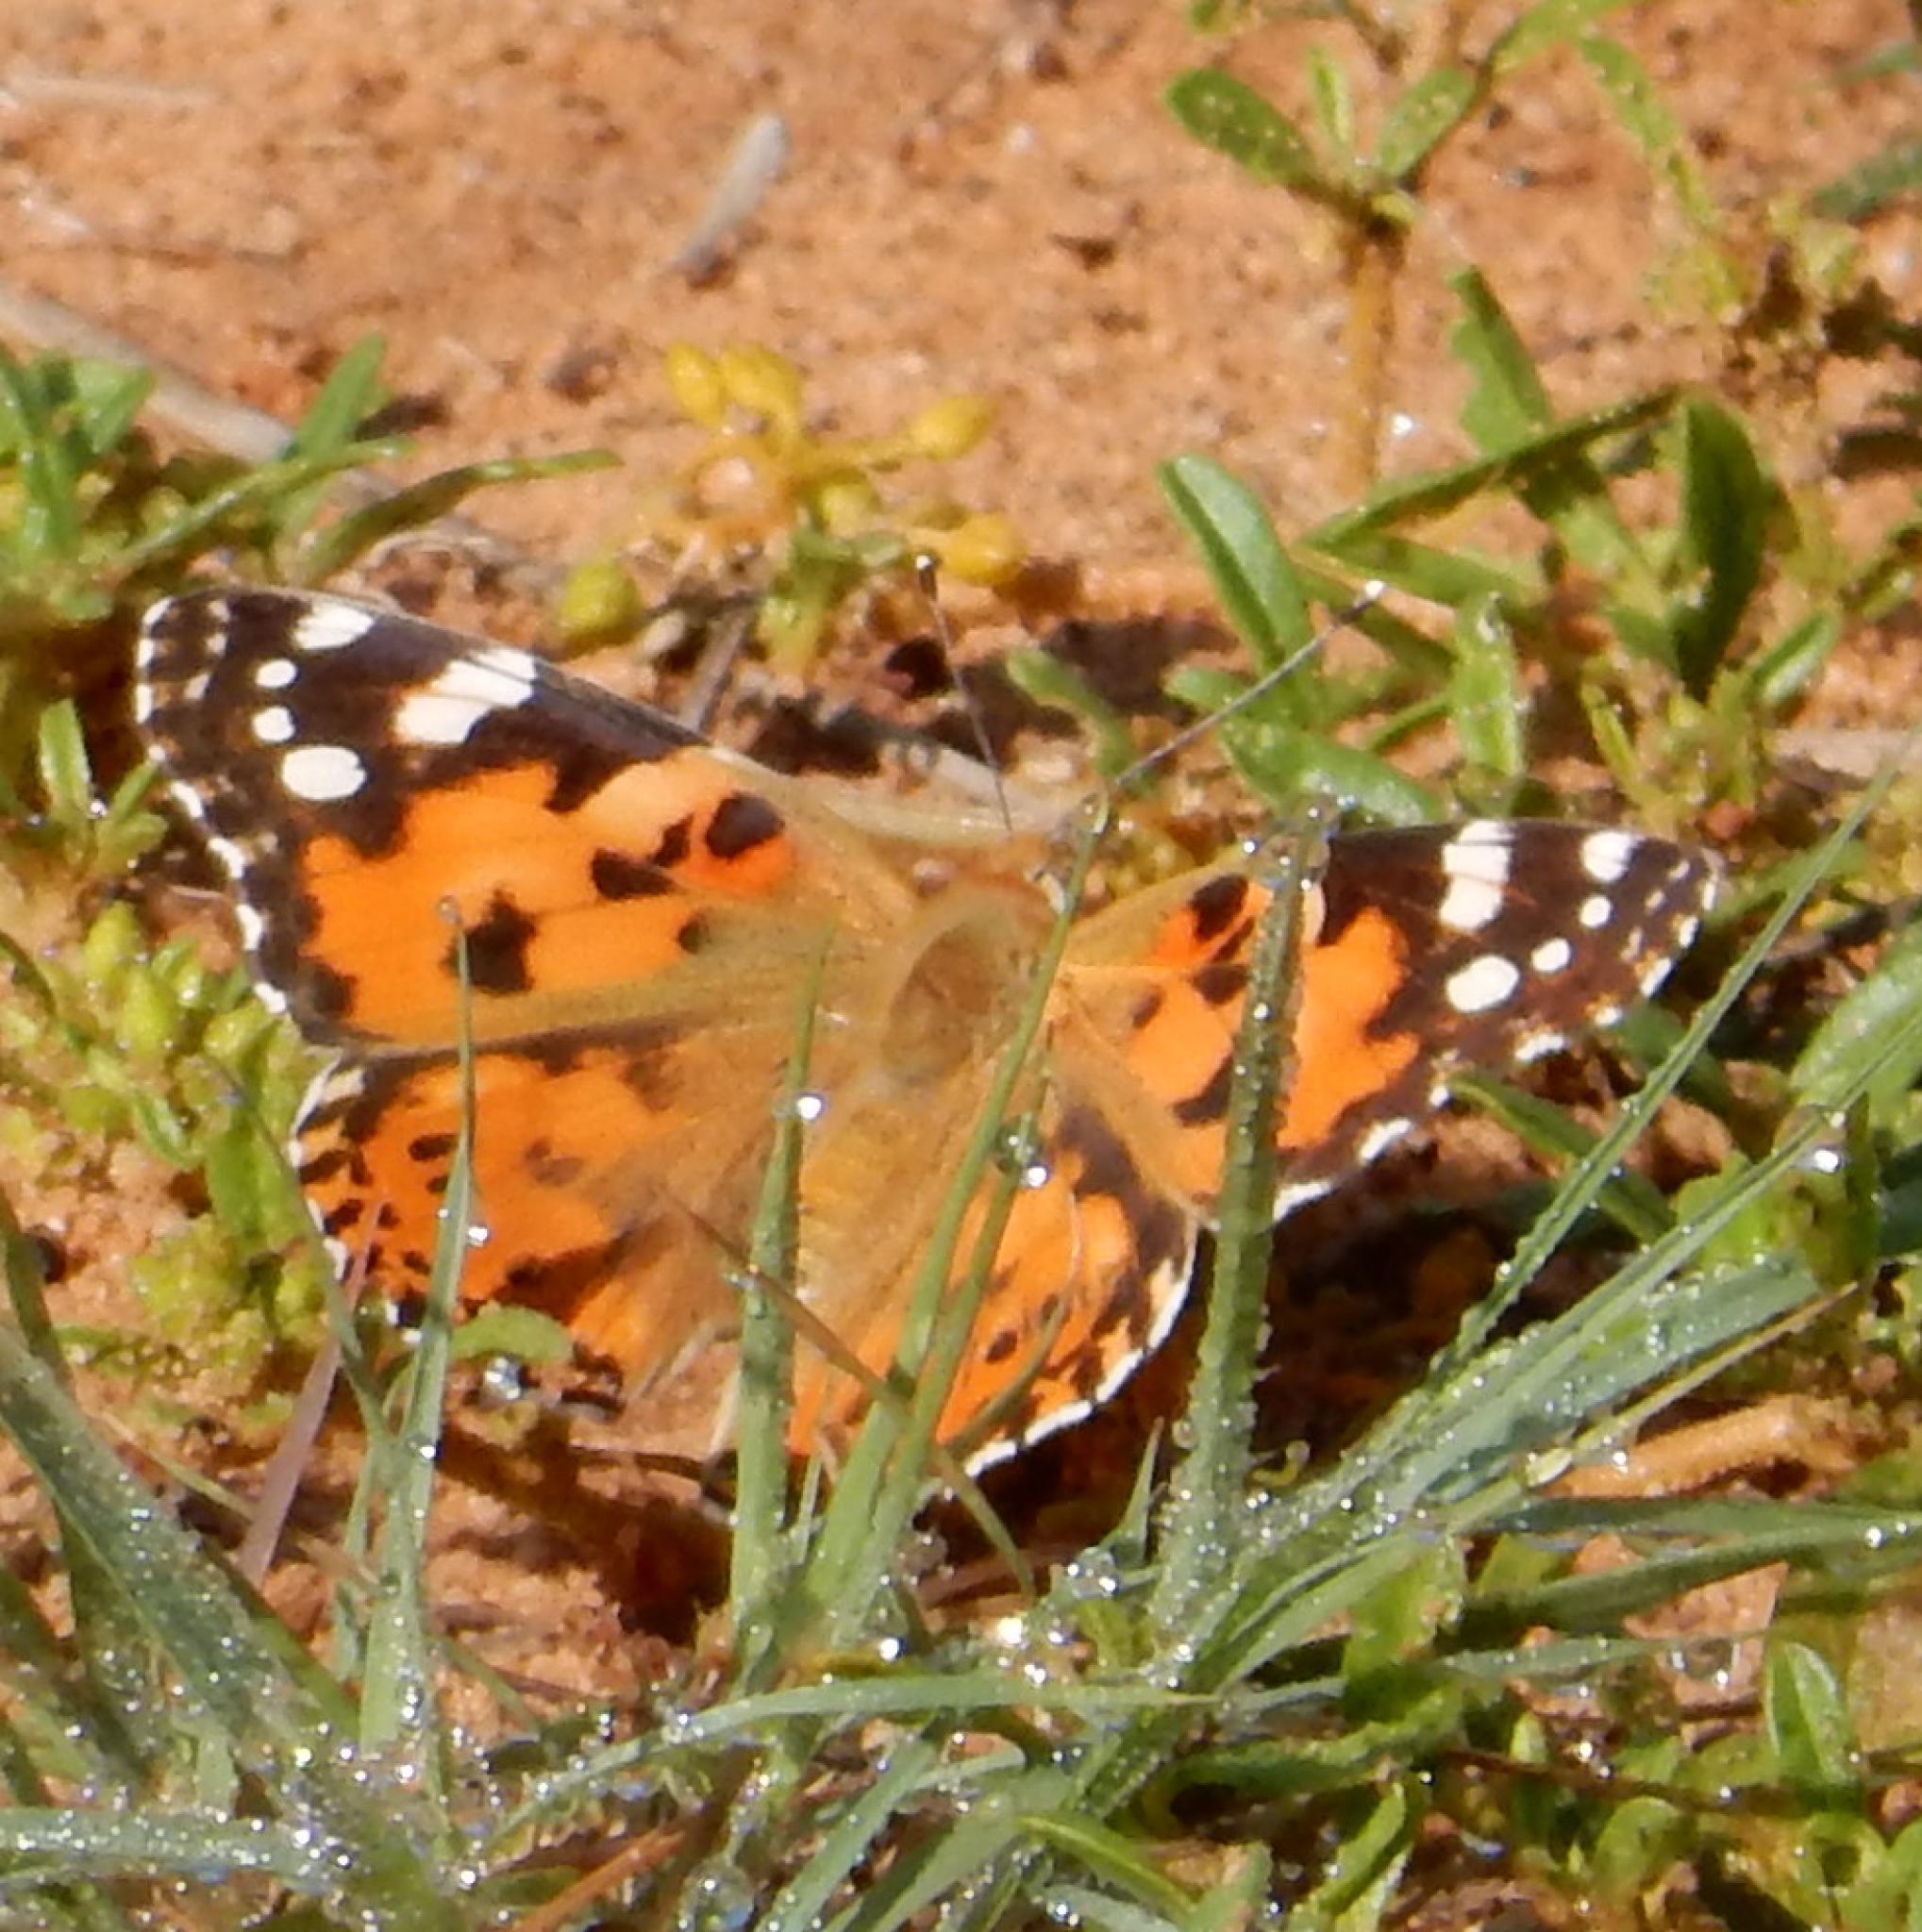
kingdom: Animalia
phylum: Arthropoda
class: Insecta
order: Lepidoptera
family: Nymphalidae
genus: Vanessa
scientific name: Vanessa cardui
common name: Painted lady
